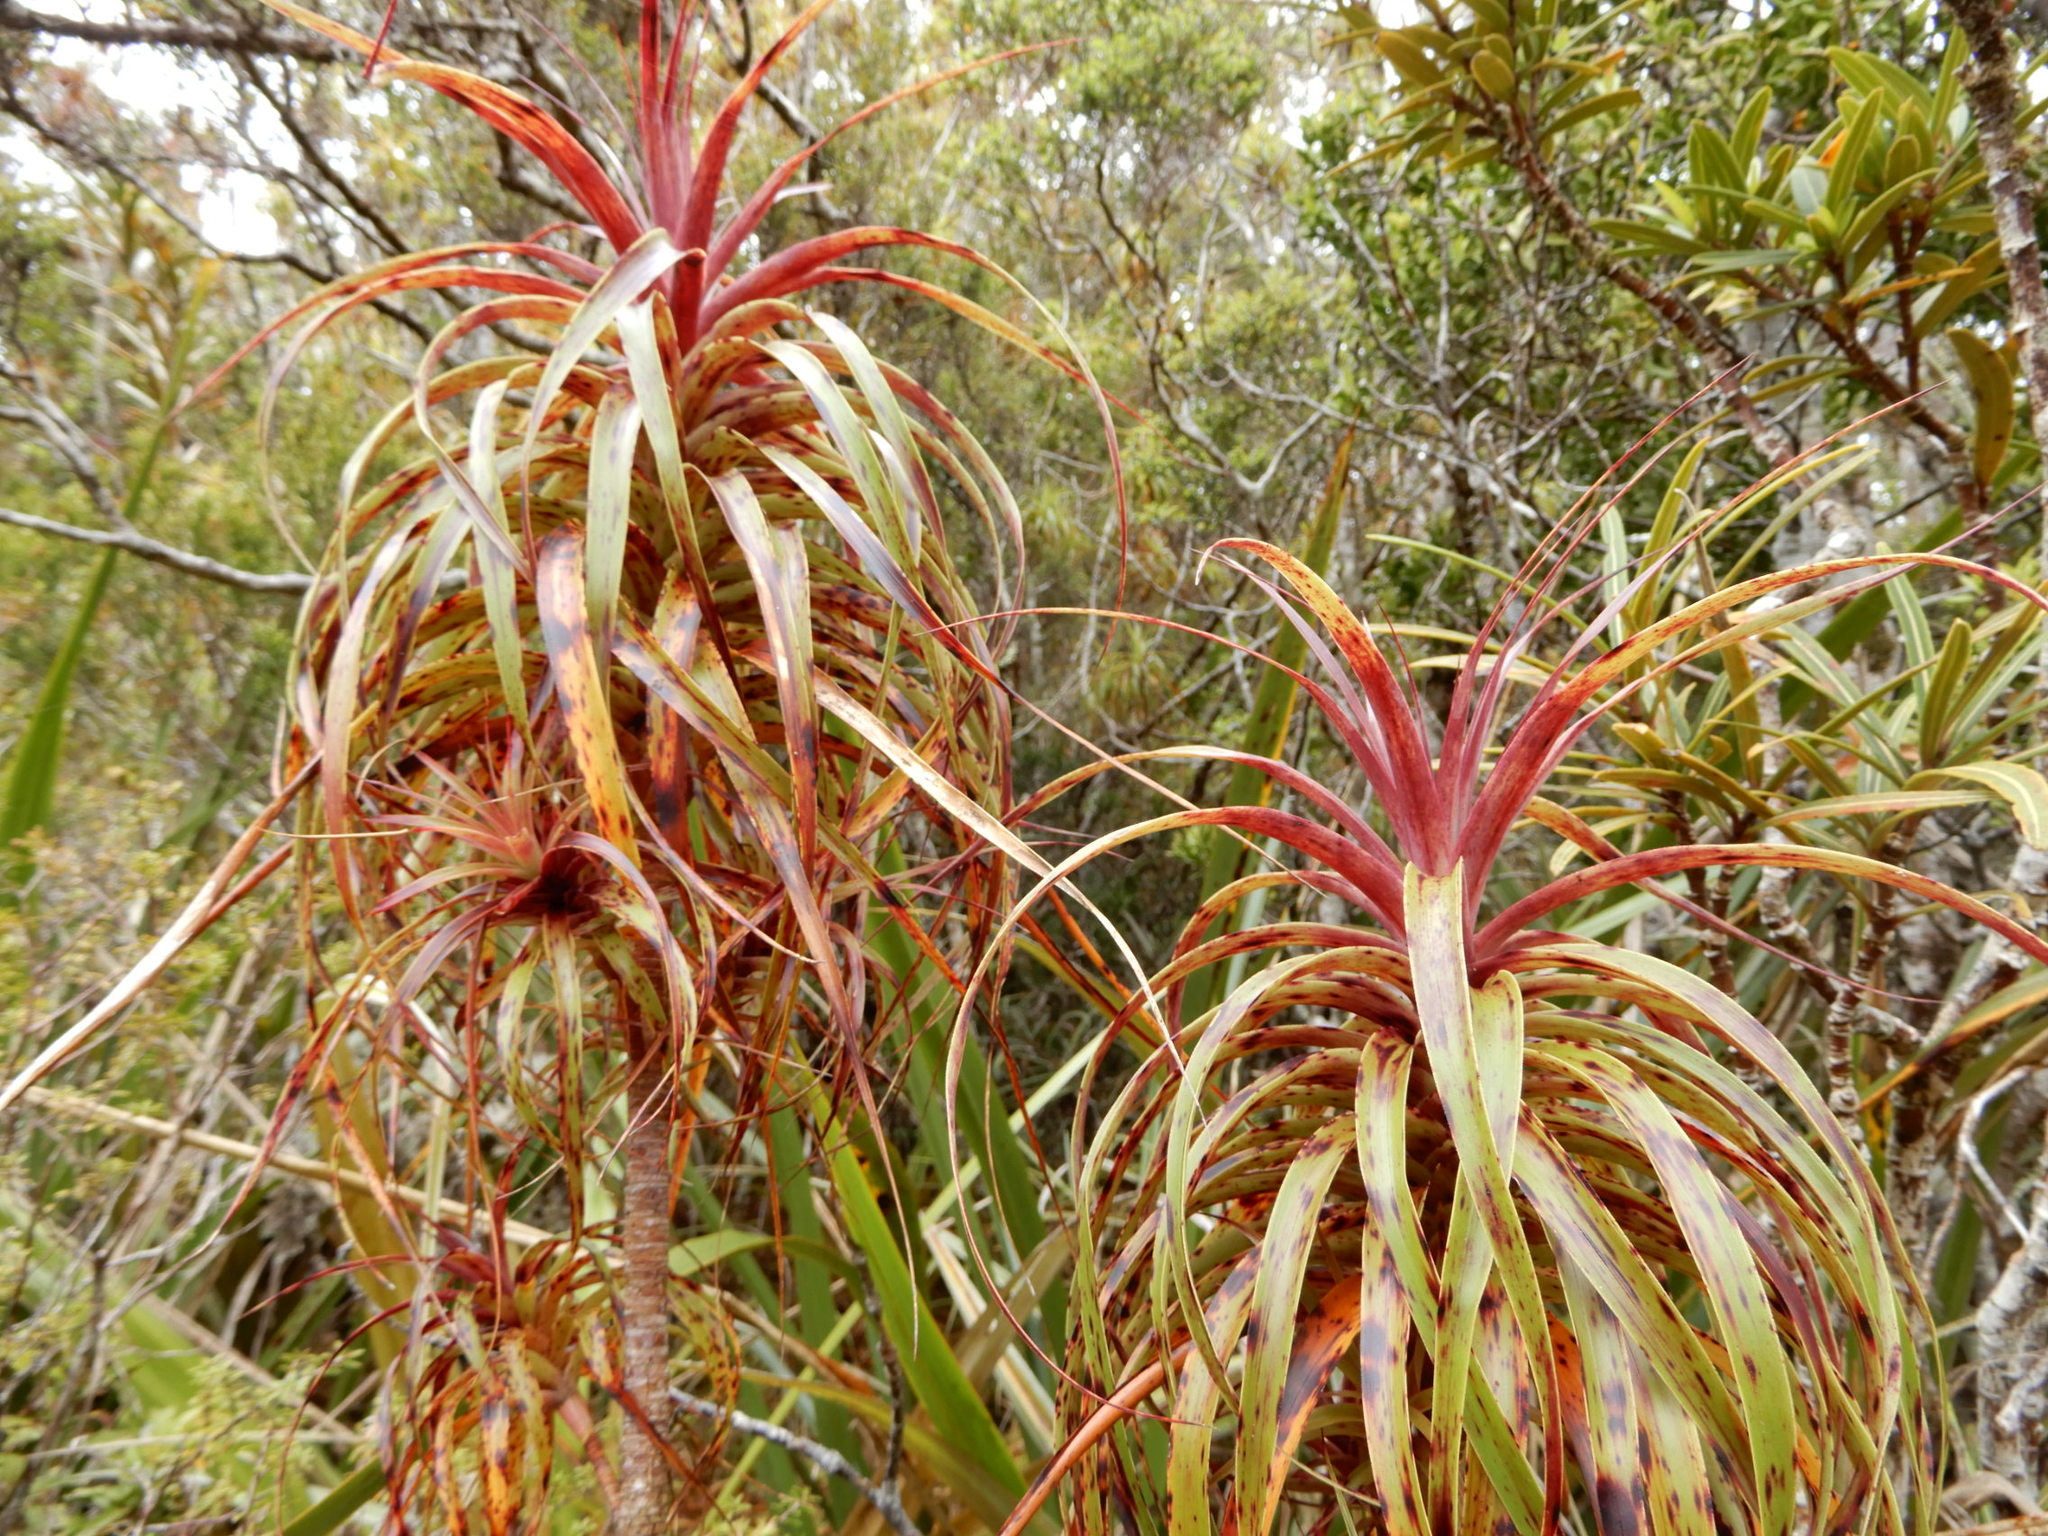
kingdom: Plantae
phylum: Tracheophyta
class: Magnoliopsida
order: Ericales
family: Ericaceae
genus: Dracophyllum
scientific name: Dracophyllum townsonii
